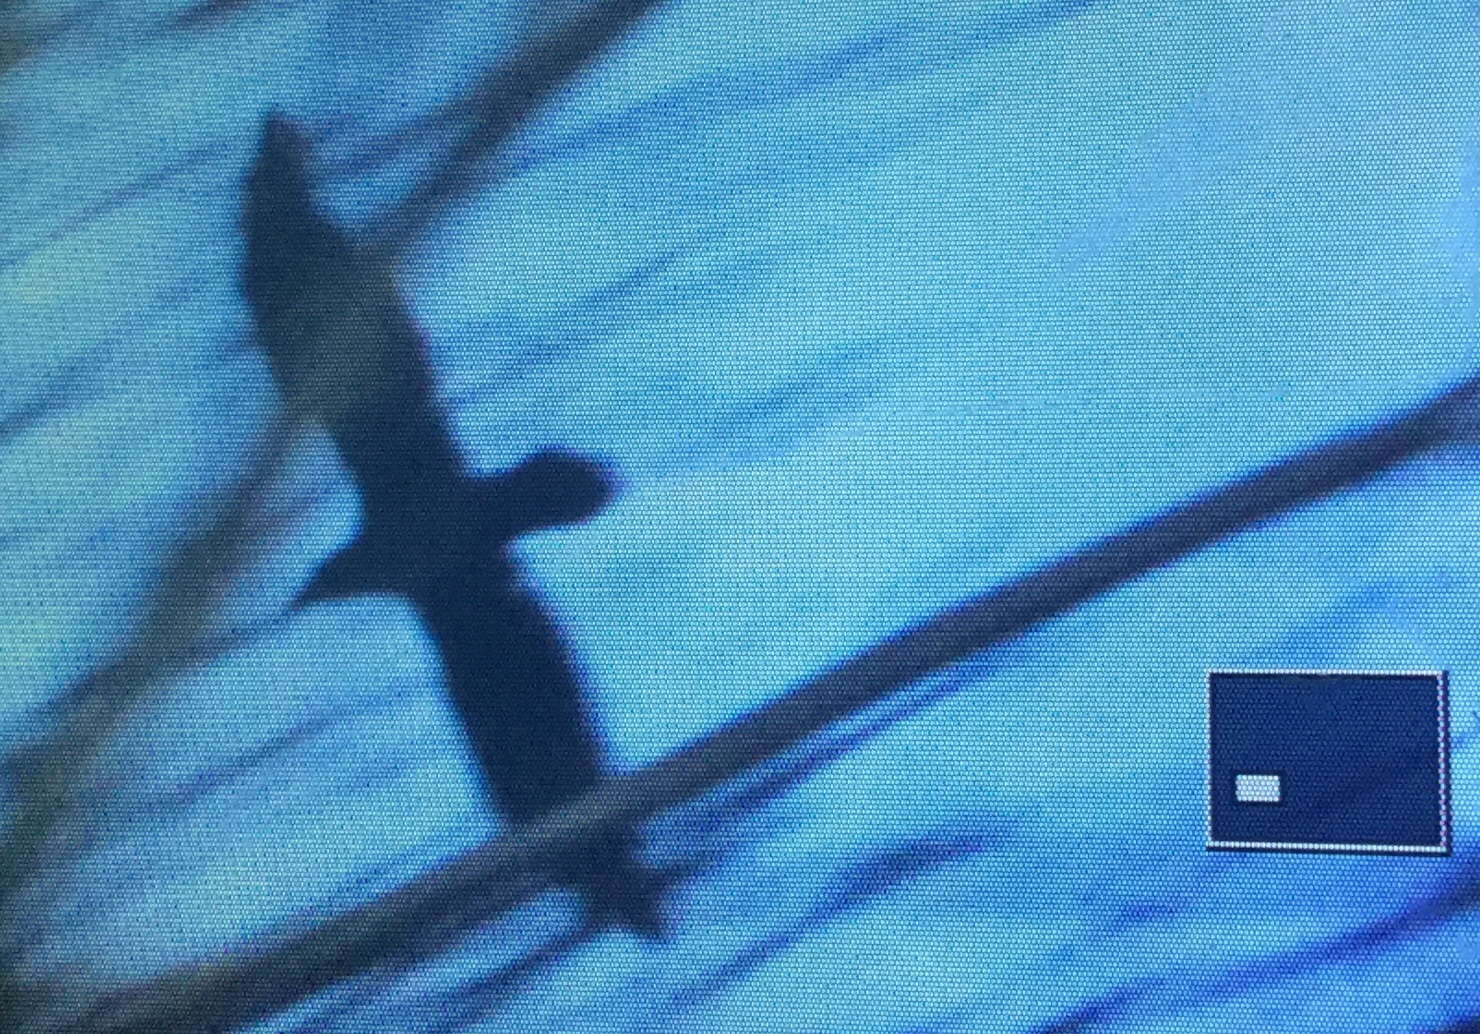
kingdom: Animalia
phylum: Chordata
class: Aves
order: Passeriformes
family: Corvidae
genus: Corvus
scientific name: Corvus corax
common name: Common raven
